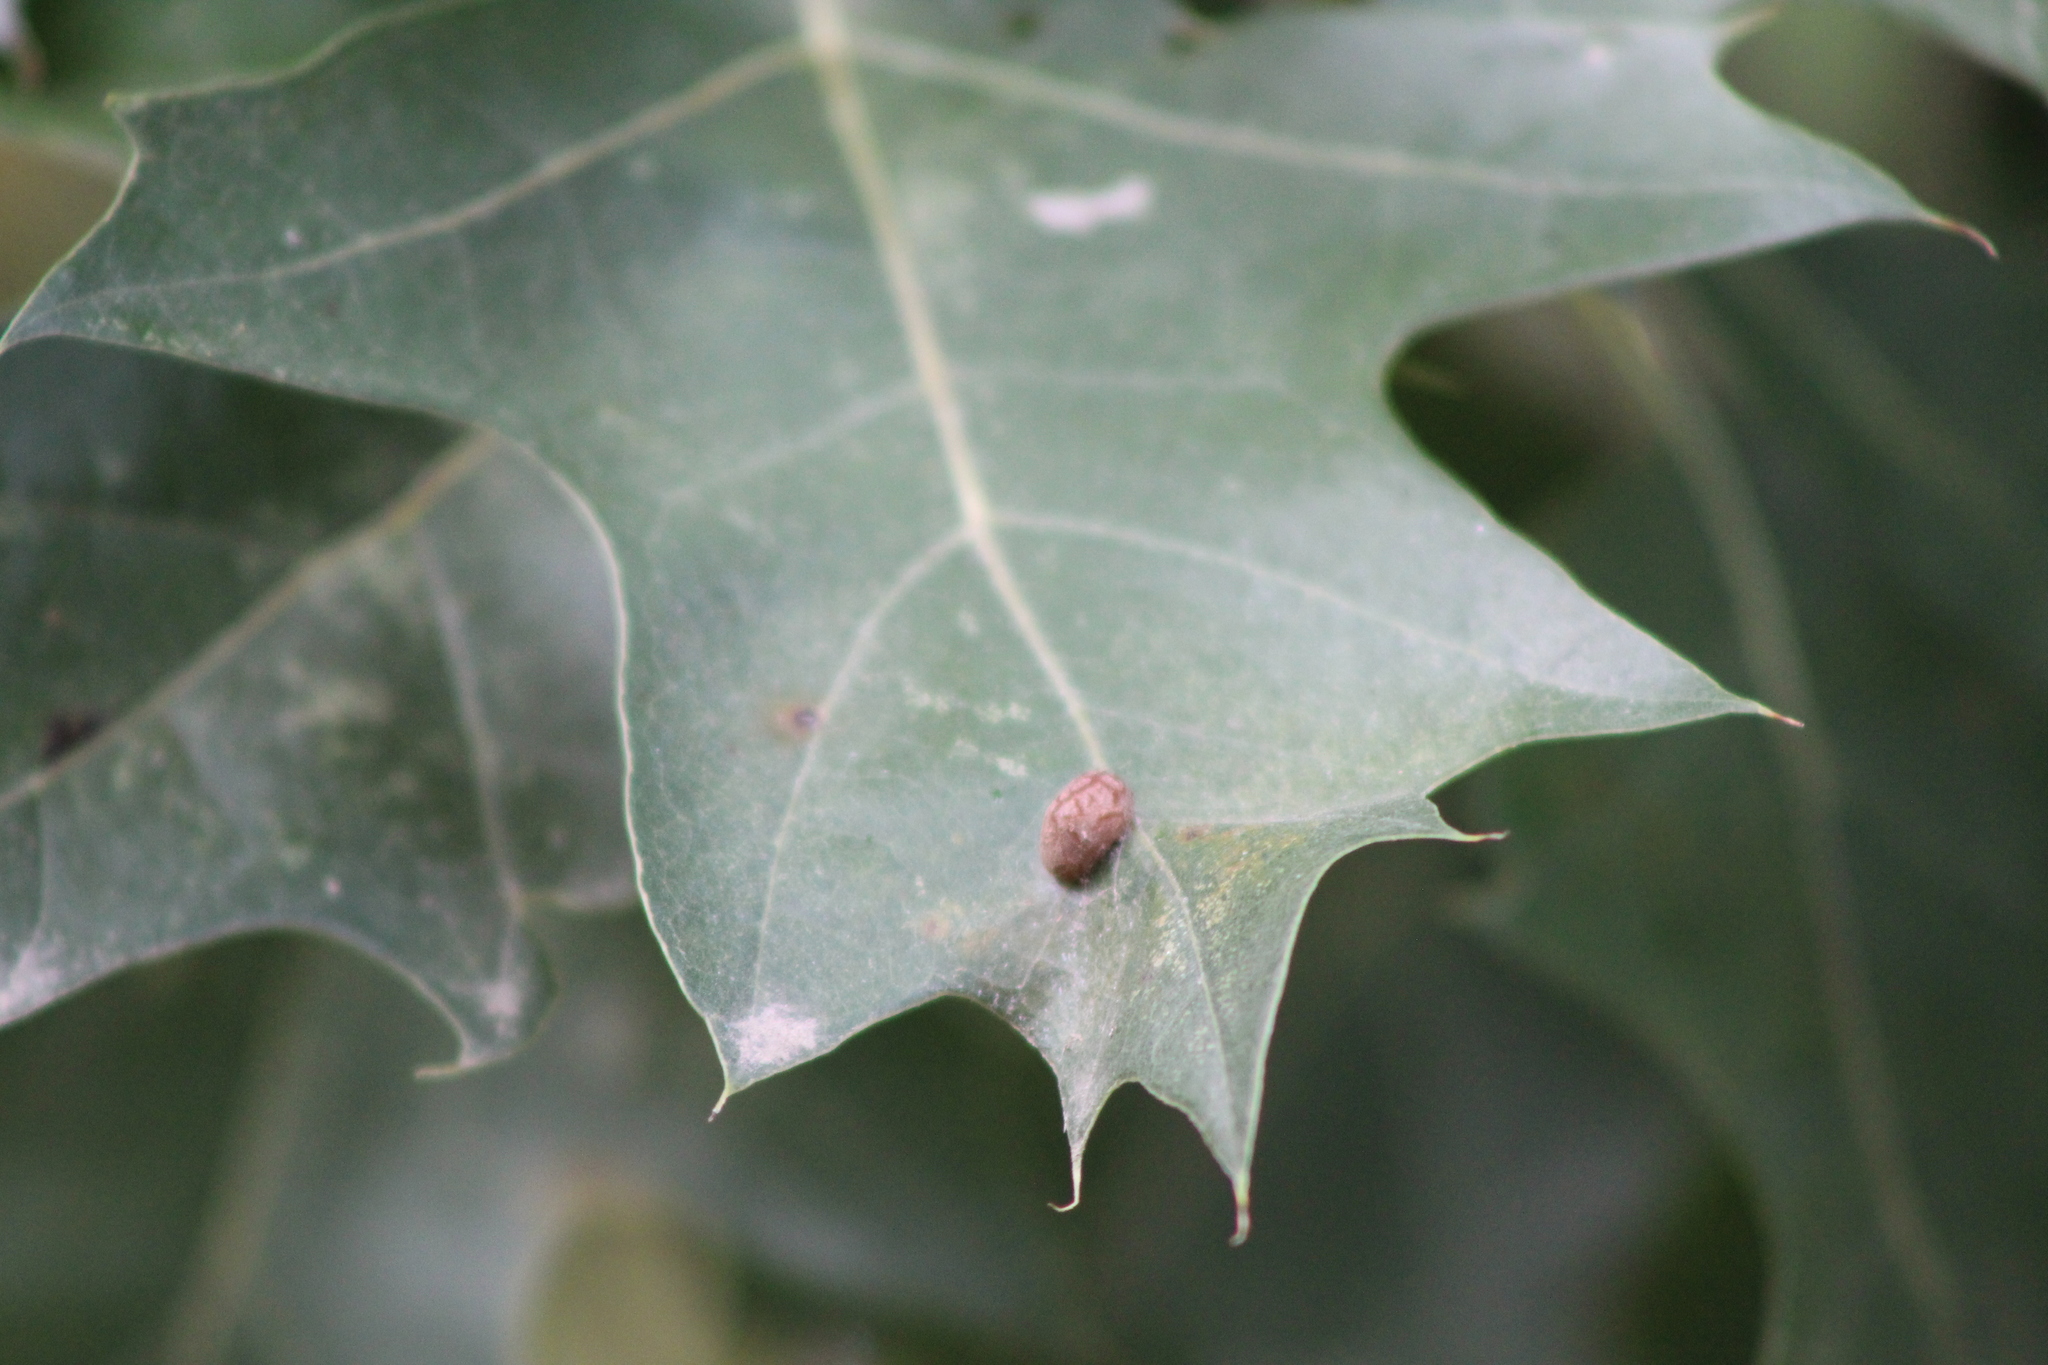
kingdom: Animalia
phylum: Arthropoda
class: Insecta
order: Diptera
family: Cecidomyiidae
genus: Polystepha
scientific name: Polystepha pilulae
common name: Oak leaf gall midge
